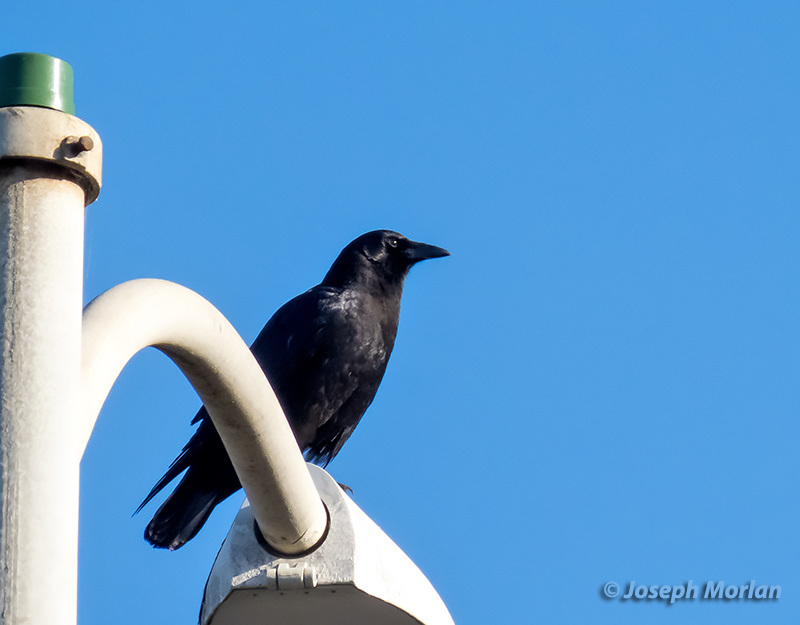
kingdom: Animalia
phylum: Chordata
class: Aves
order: Passeriformes
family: Corvidae
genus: Corvus
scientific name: Corvus brachyrhynchos
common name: American crow
